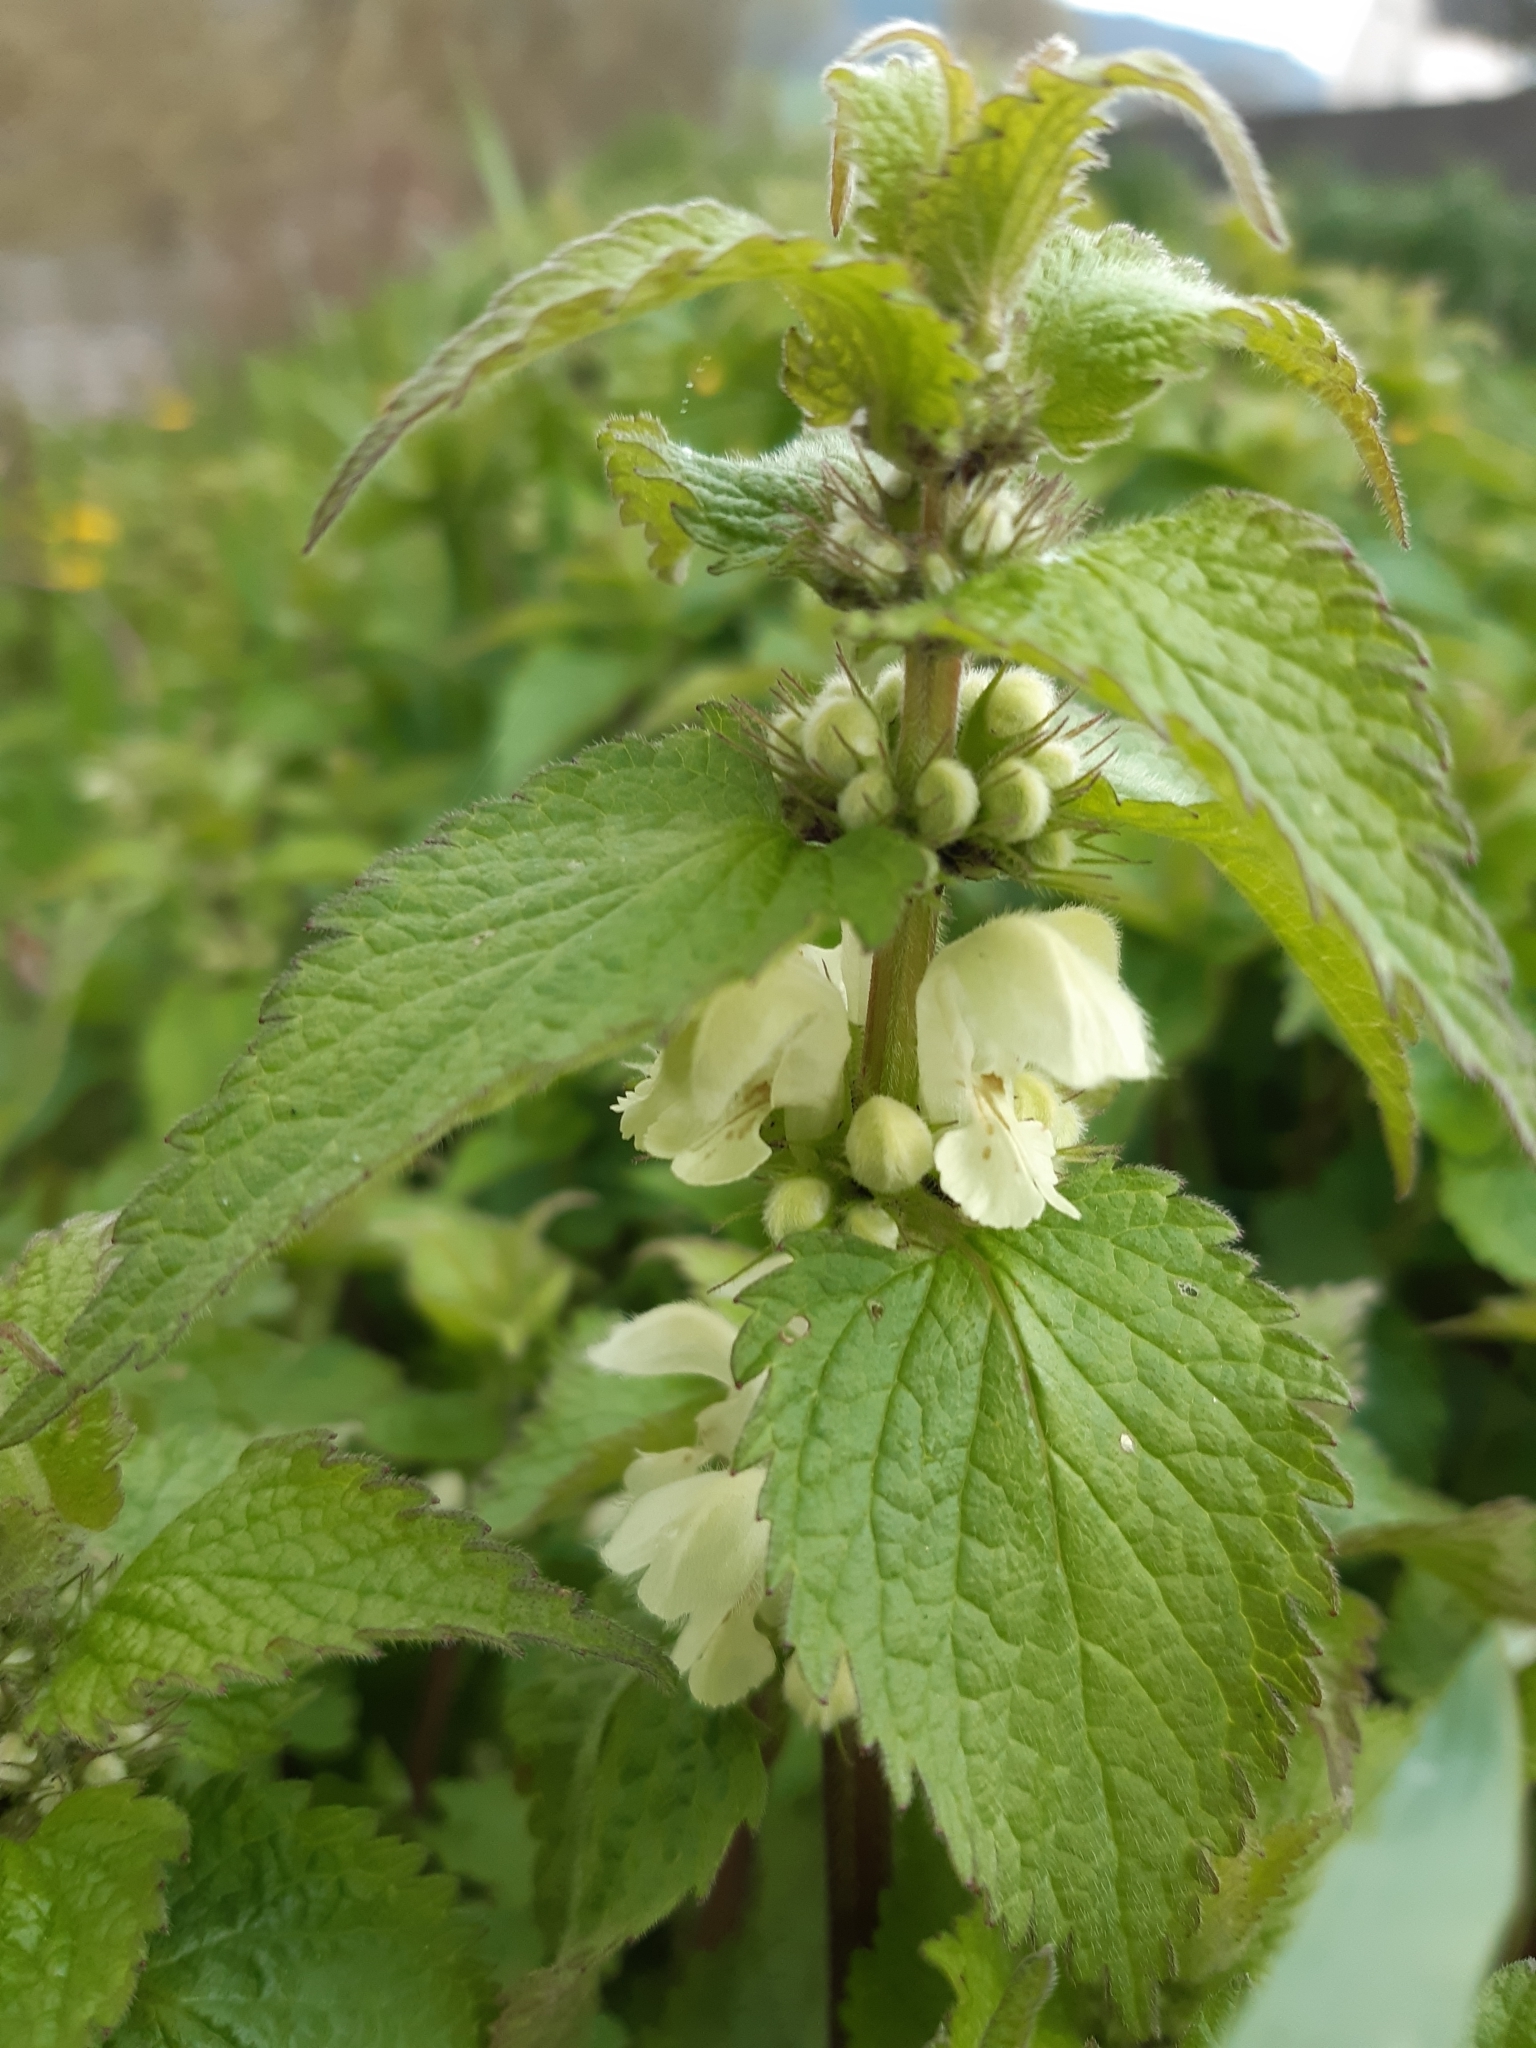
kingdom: Plantae
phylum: Tracheophyta
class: Magnoliopsida
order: Lamiales
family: Lamiaceae
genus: Lamium
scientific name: Lamium album
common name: White dead-nettle
